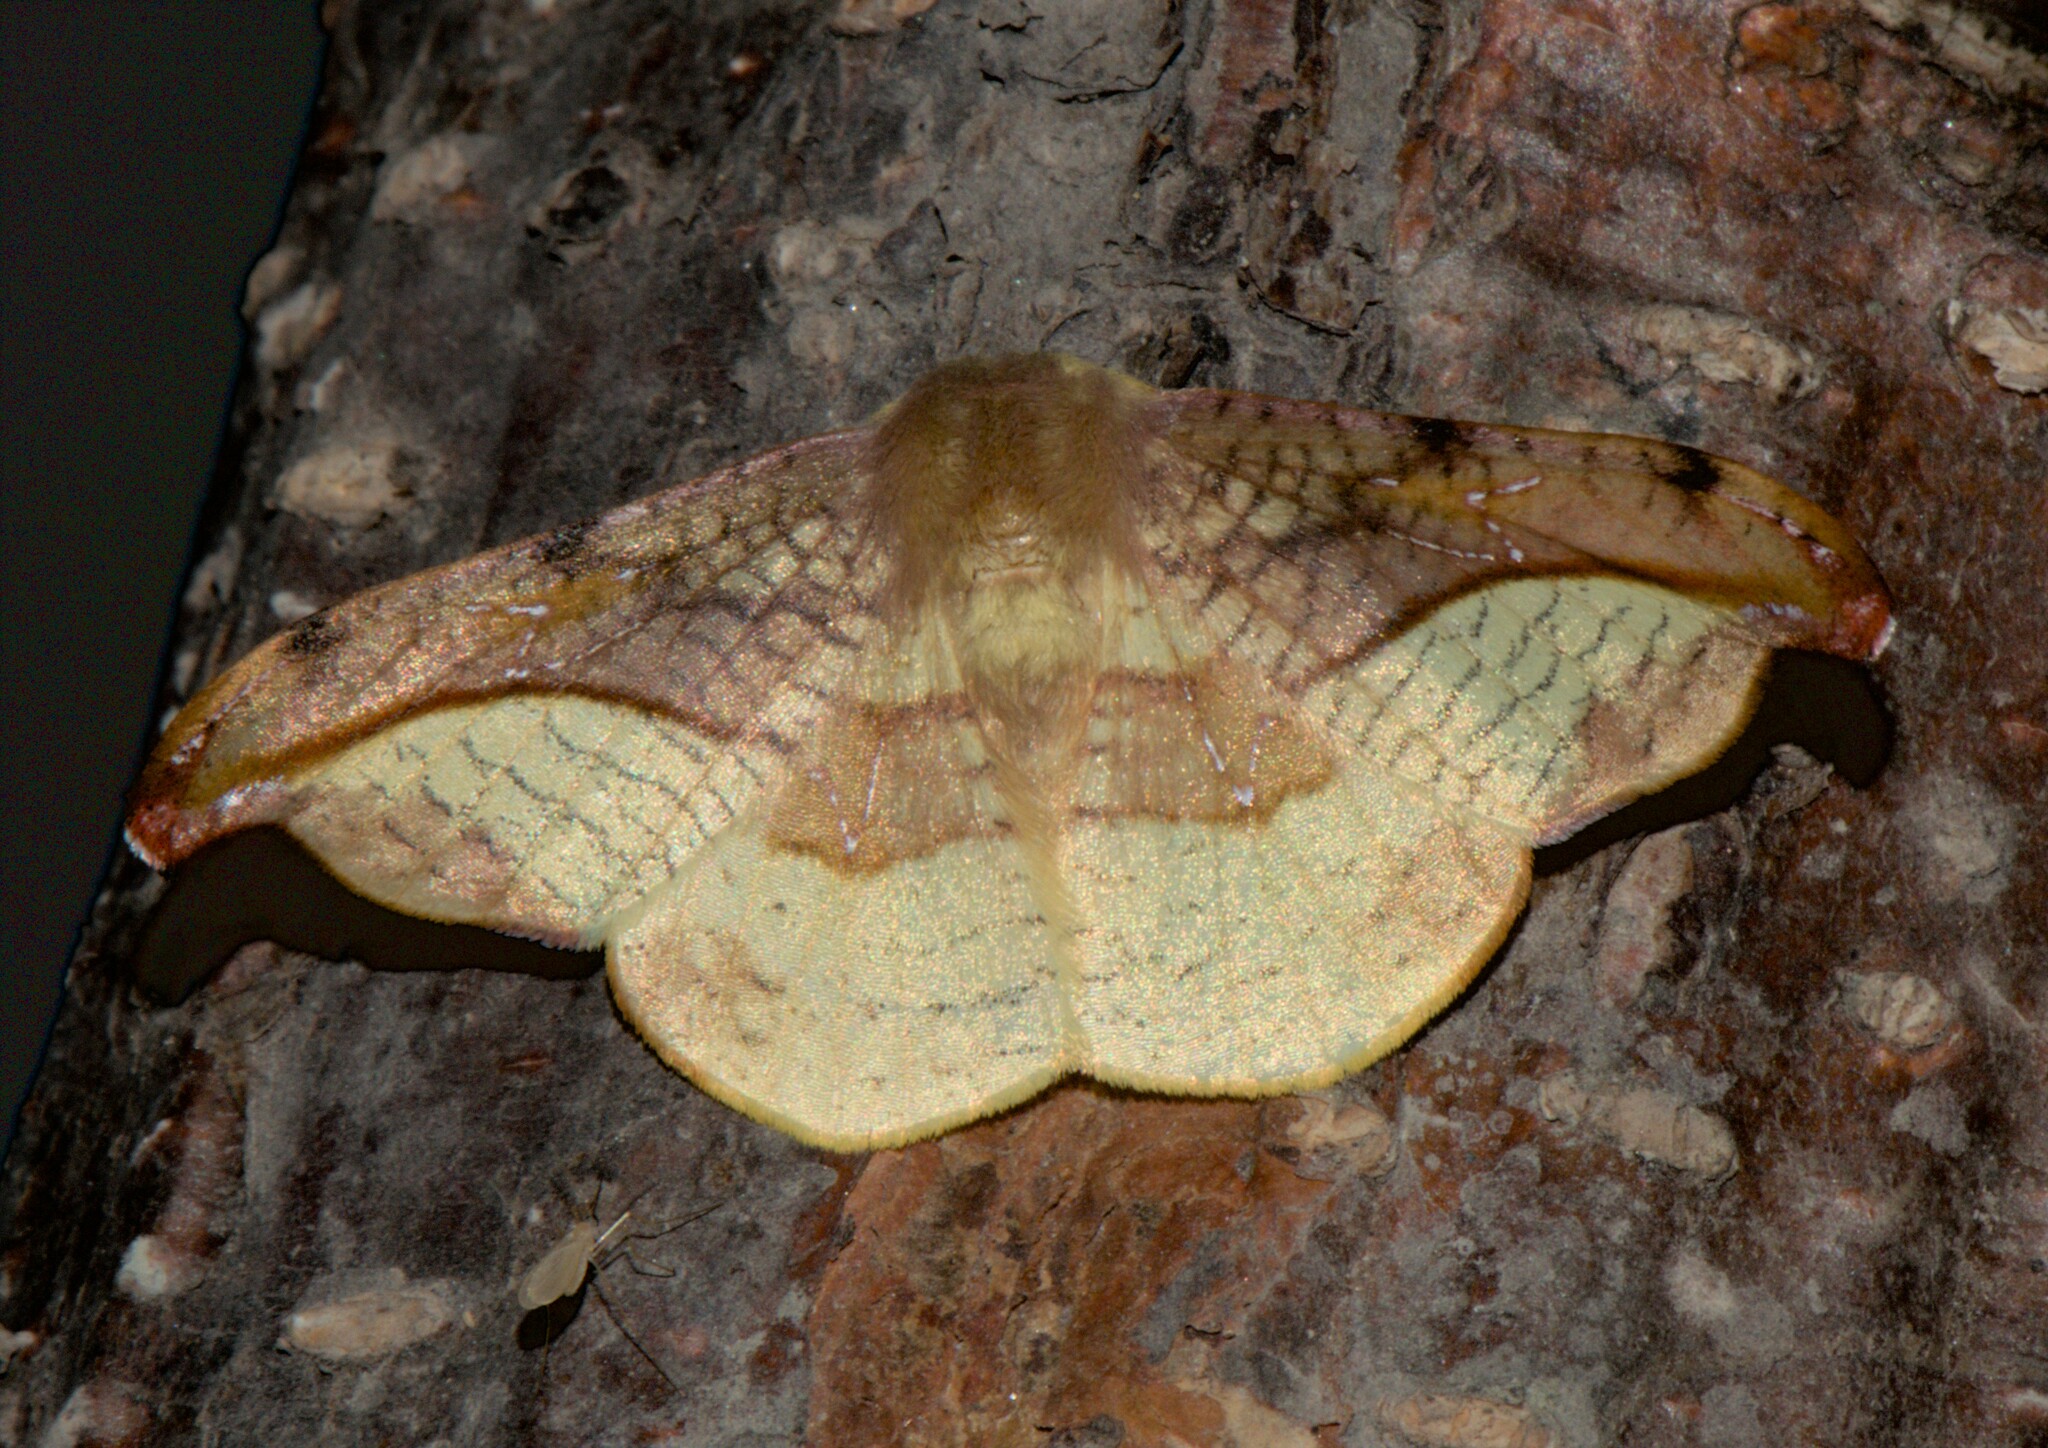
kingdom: Animalia
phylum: Arthropoda
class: Insecta
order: Lepidoptera
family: Drepanidae
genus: Oreta
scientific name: Oreta vatama
